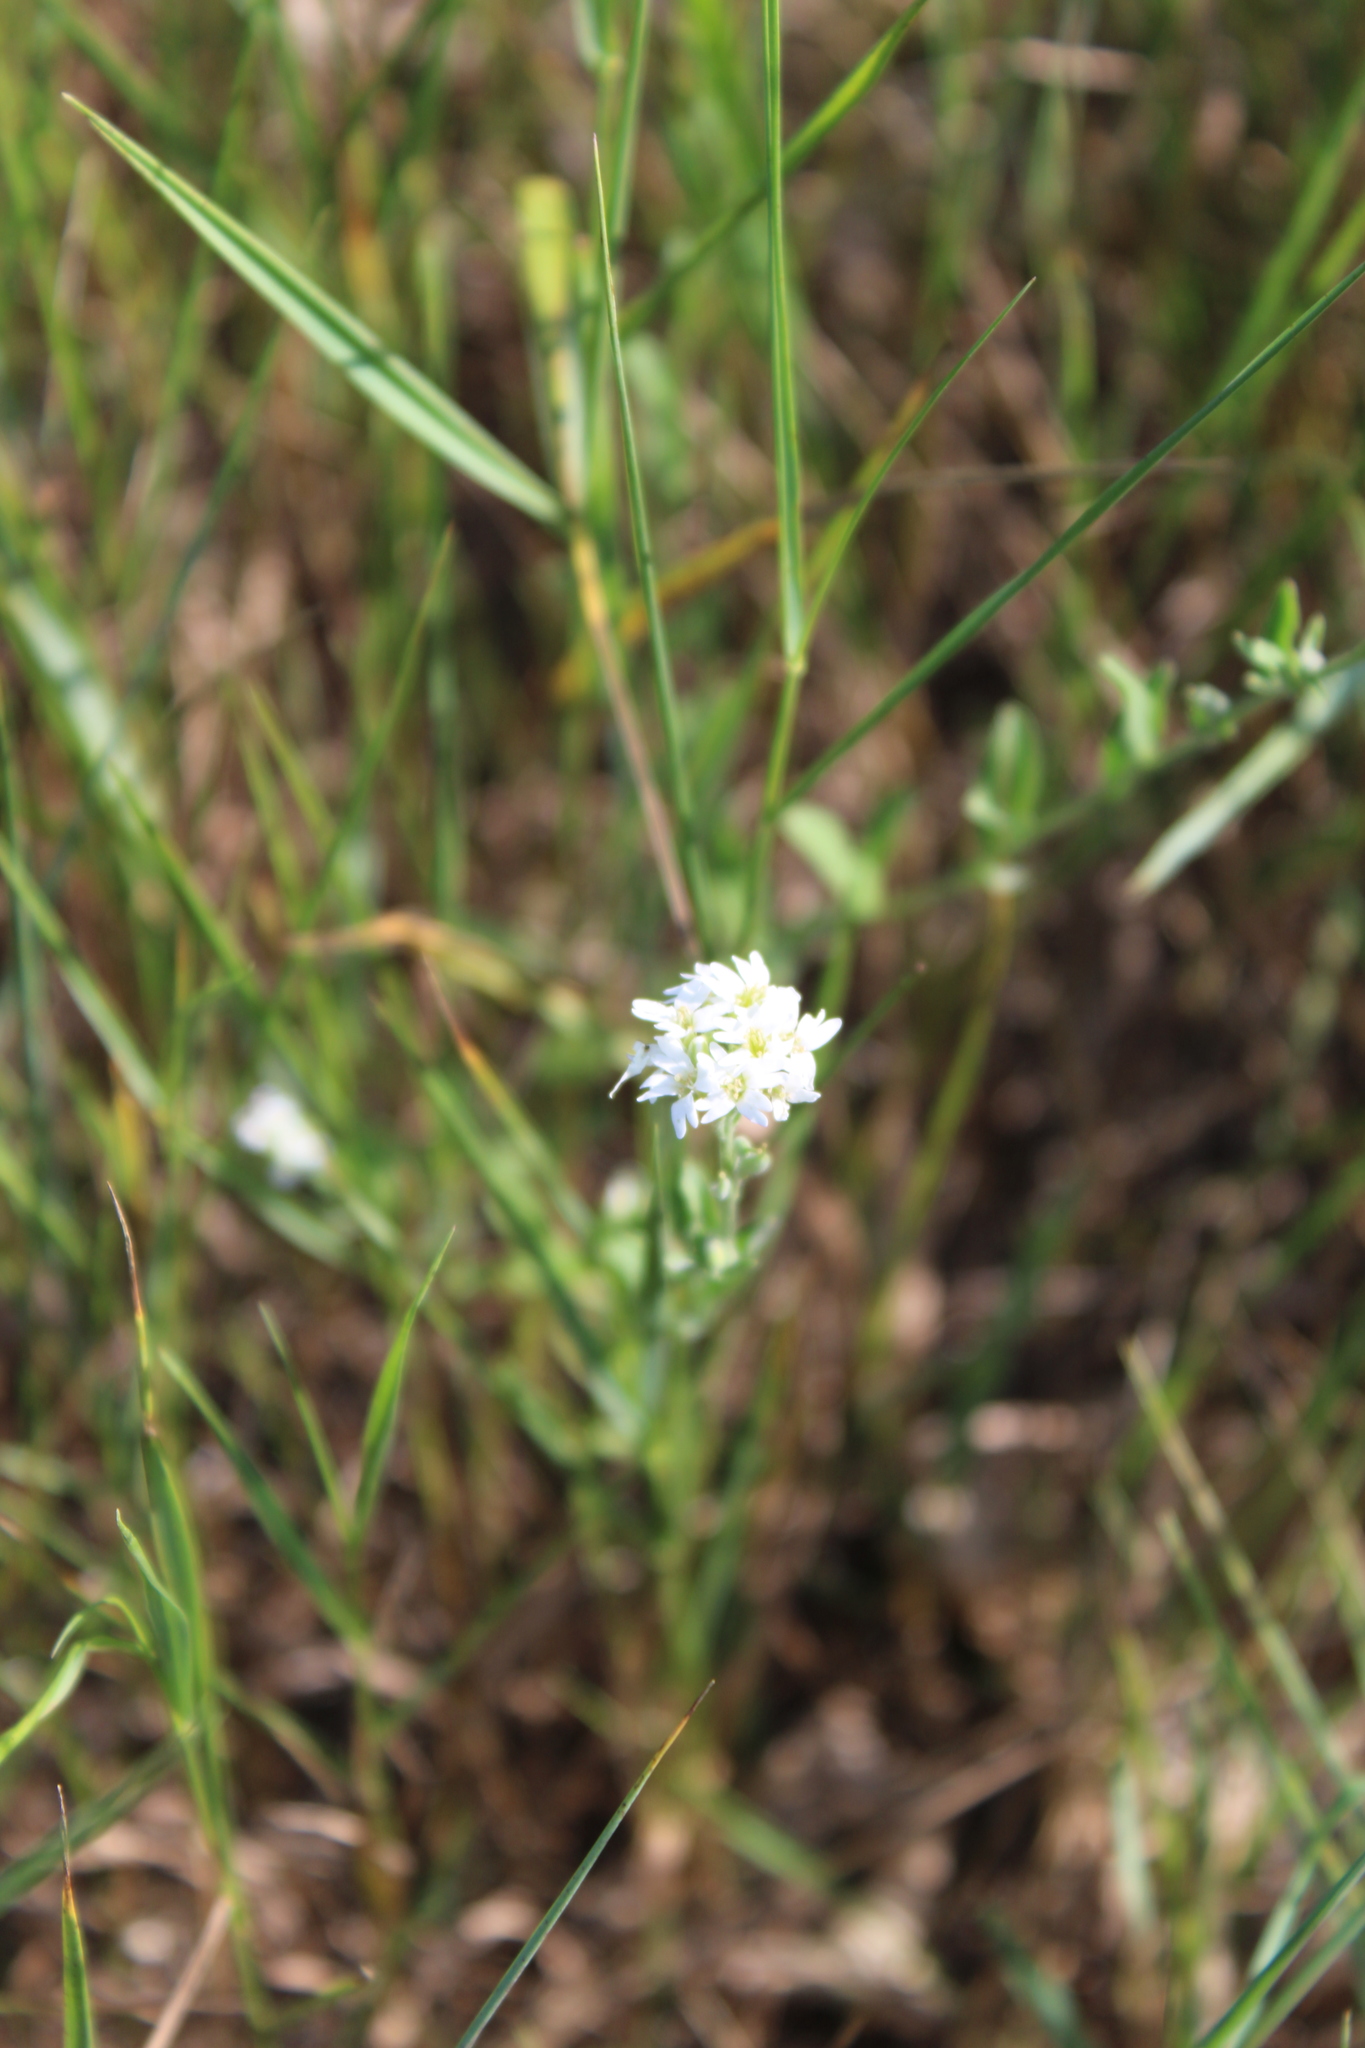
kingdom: Plantae
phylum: Tracheophyta
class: Magnoliopsida
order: Brassicales
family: Brassicaceae
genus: Berteroa
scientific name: Berteroa incana
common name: Hoary alison
